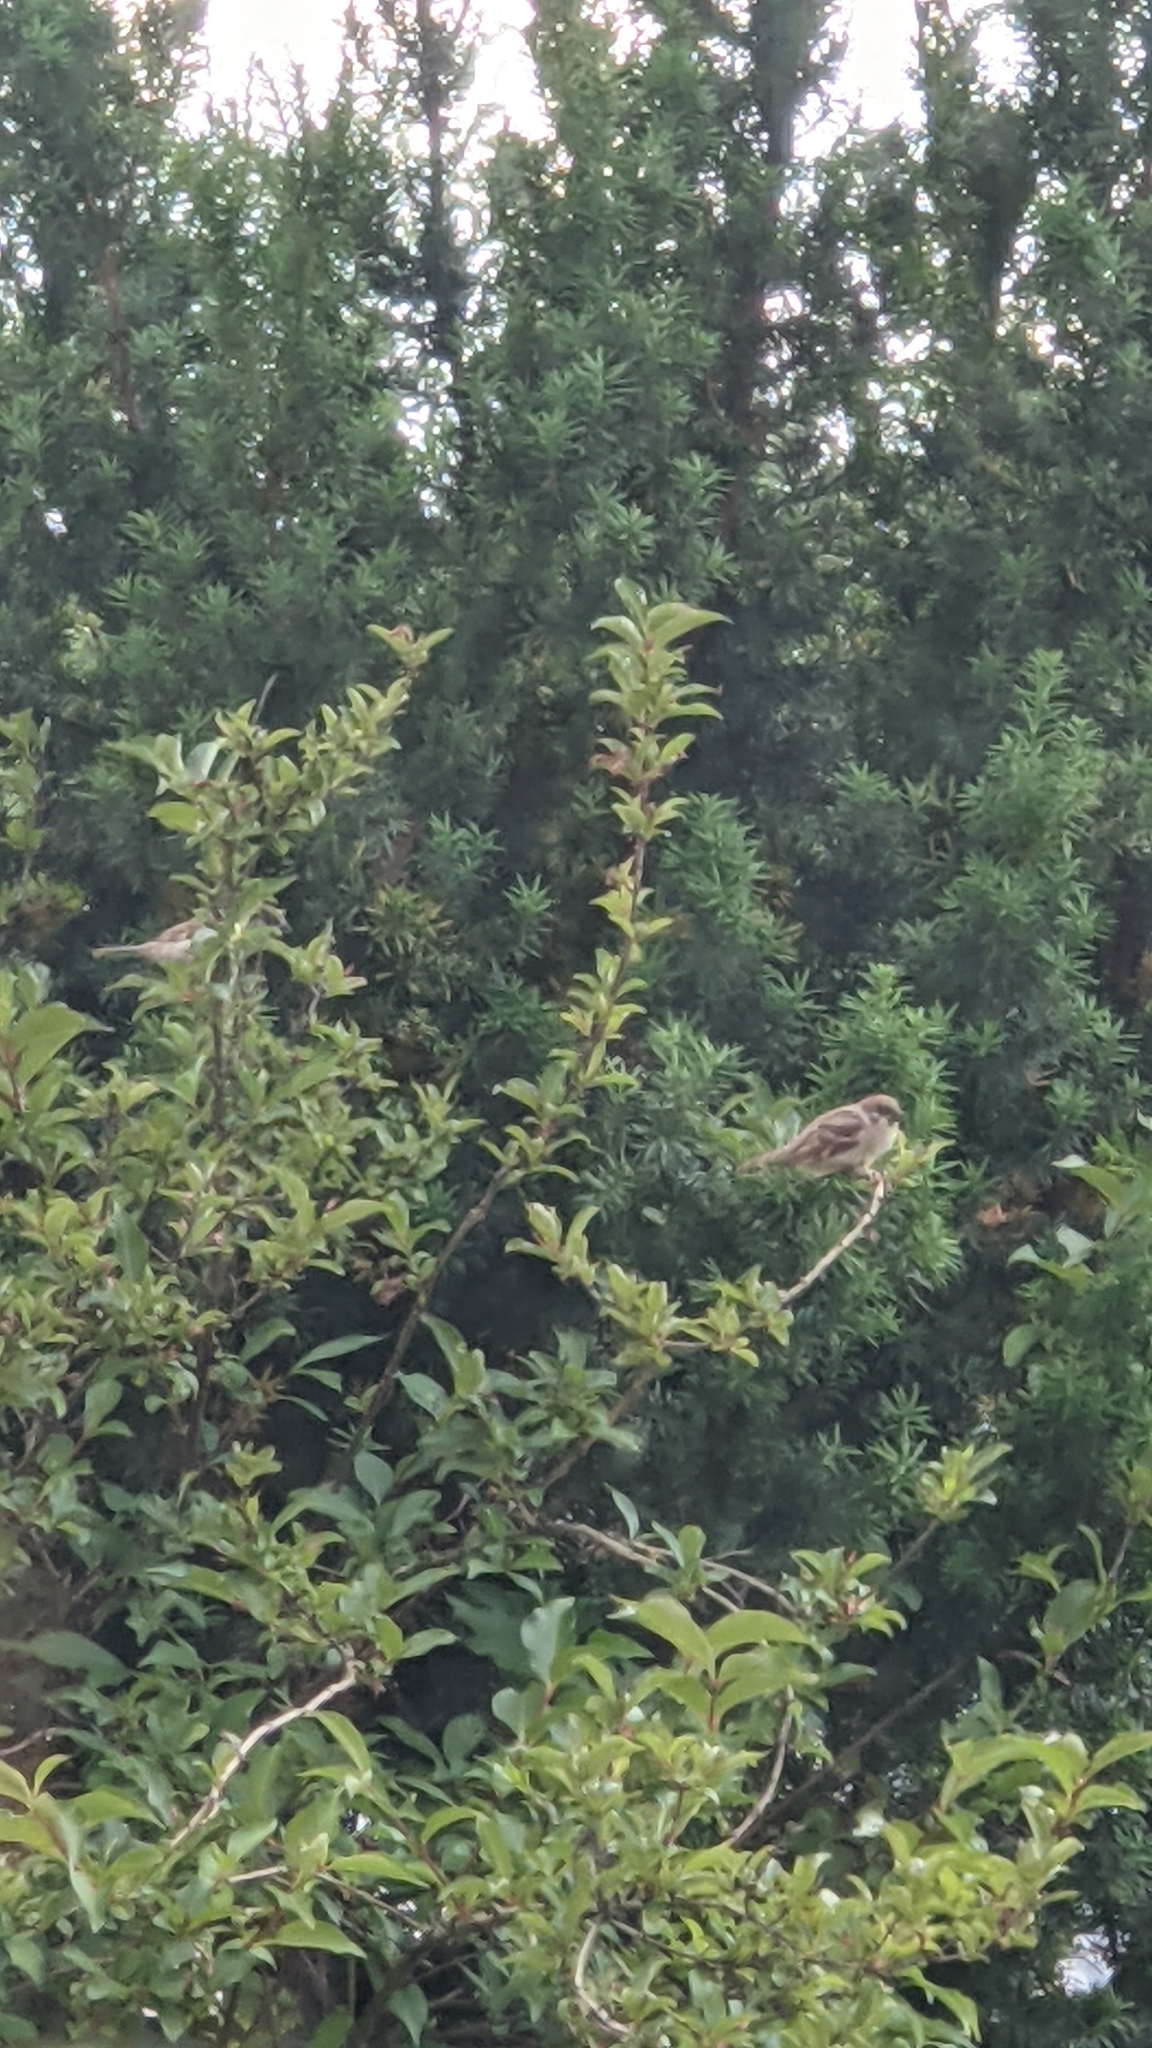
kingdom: Animalia
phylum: Chordata
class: Aves
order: Passeriformes
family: Passeridae
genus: Passer
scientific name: Passer montanus
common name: Eurasian tree sparrow
